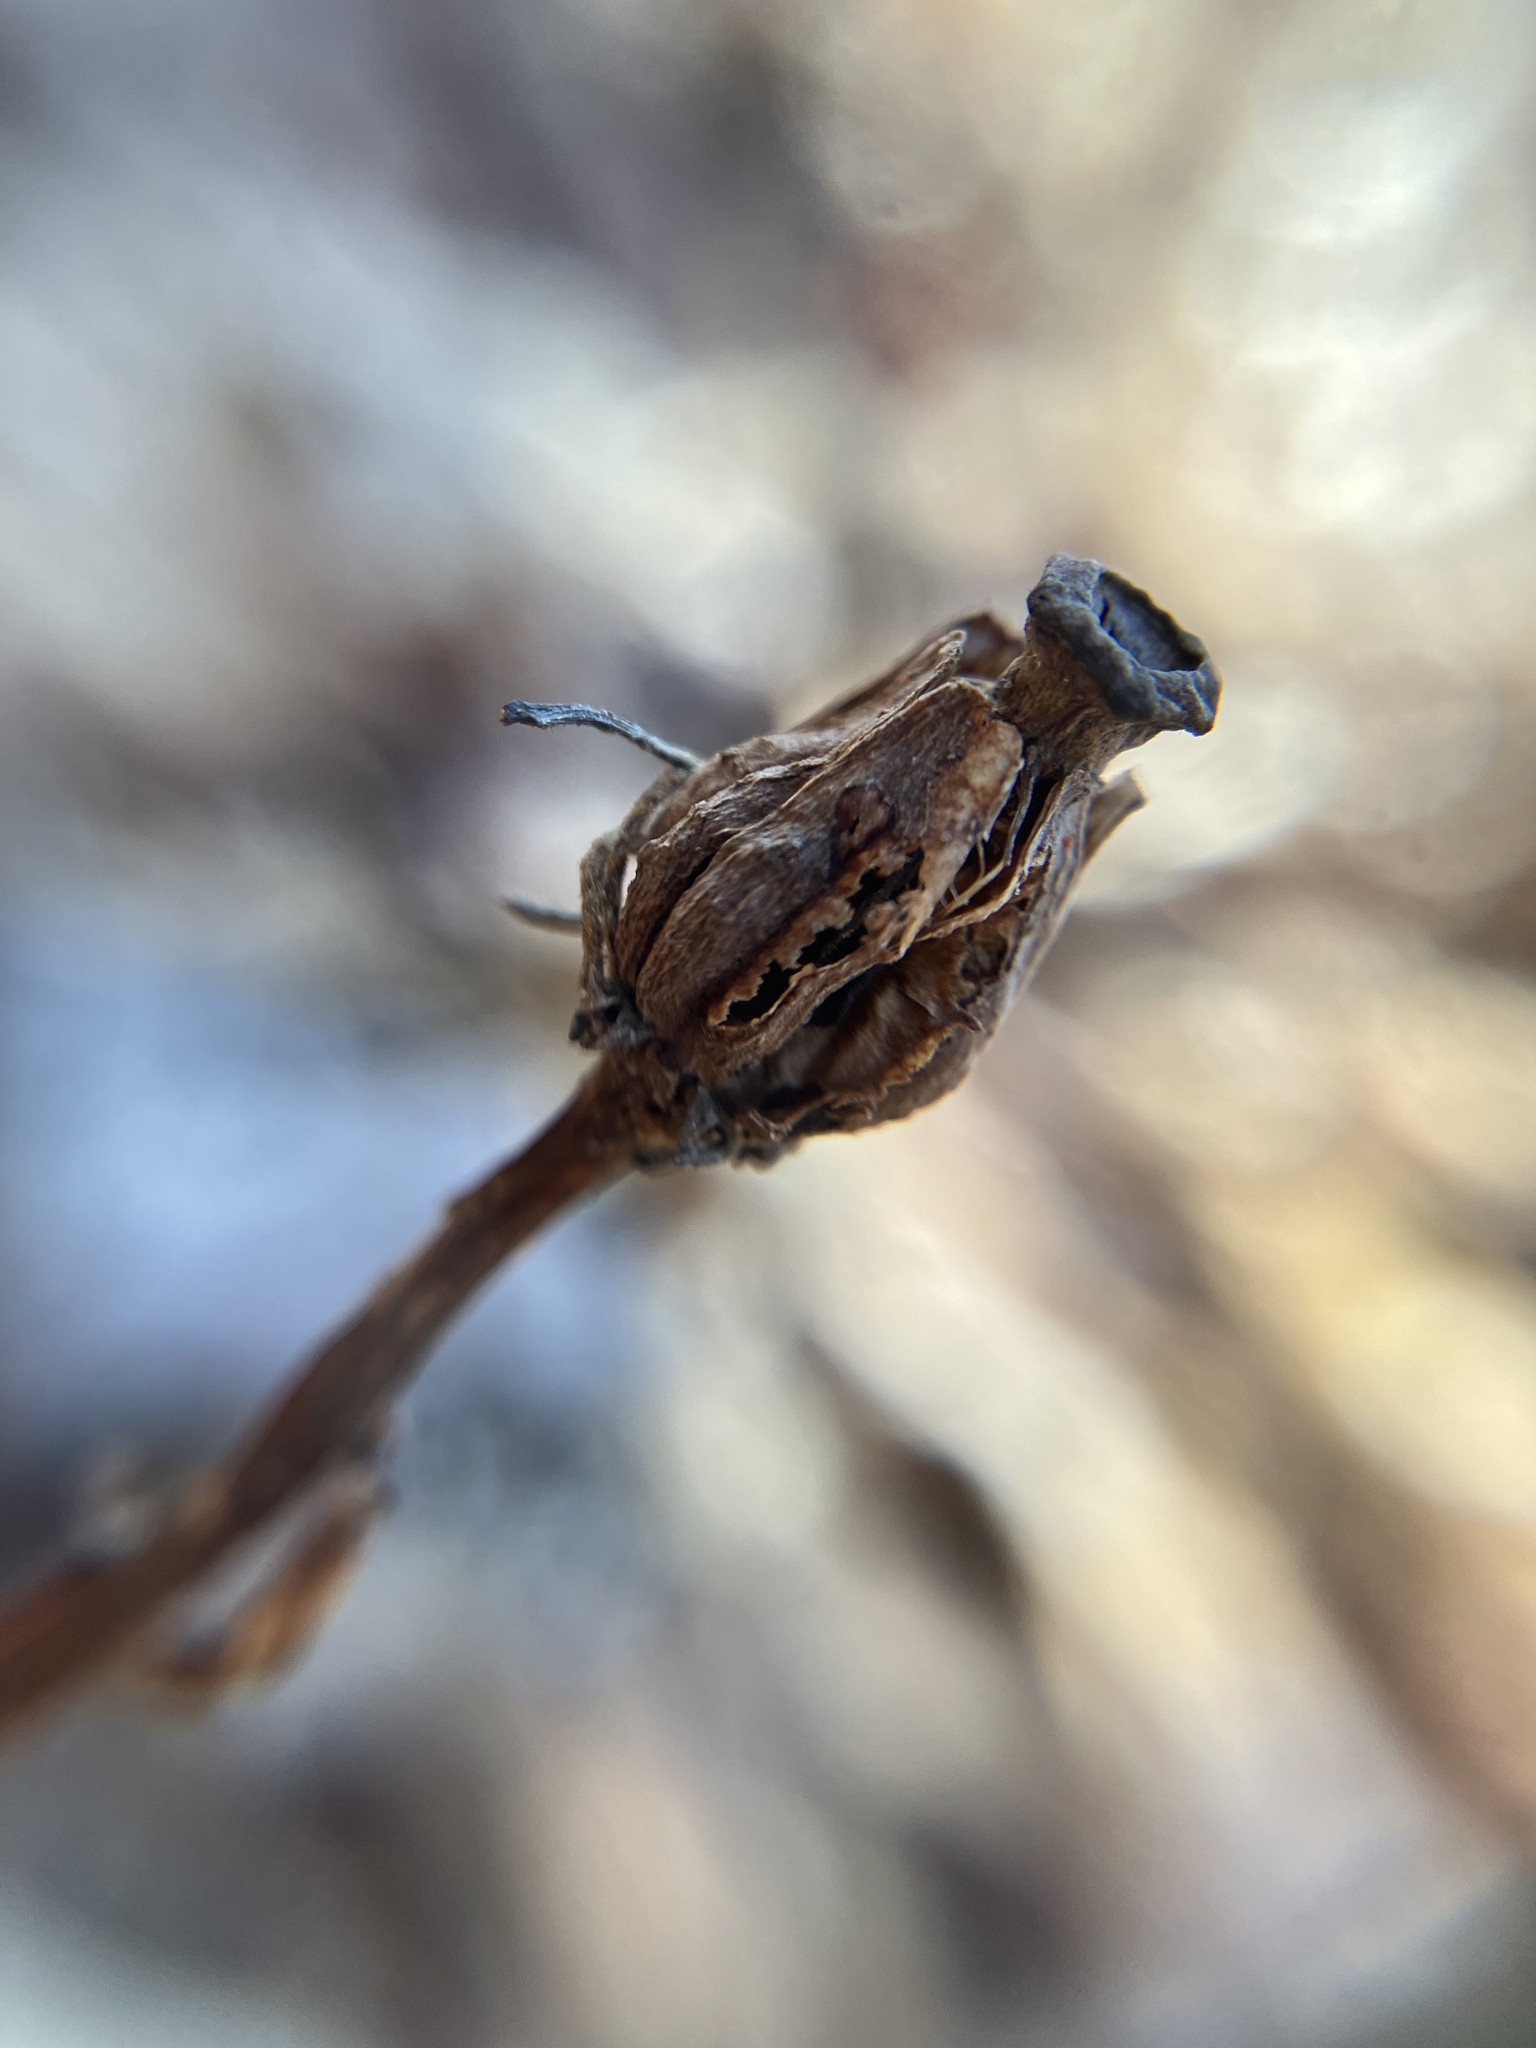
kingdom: Plantae
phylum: Tracheophyta
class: Magnoliopsida
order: Ericales
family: Ericaceae
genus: Monotropa
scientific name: Monotropa uniflora
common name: Convulsion root
